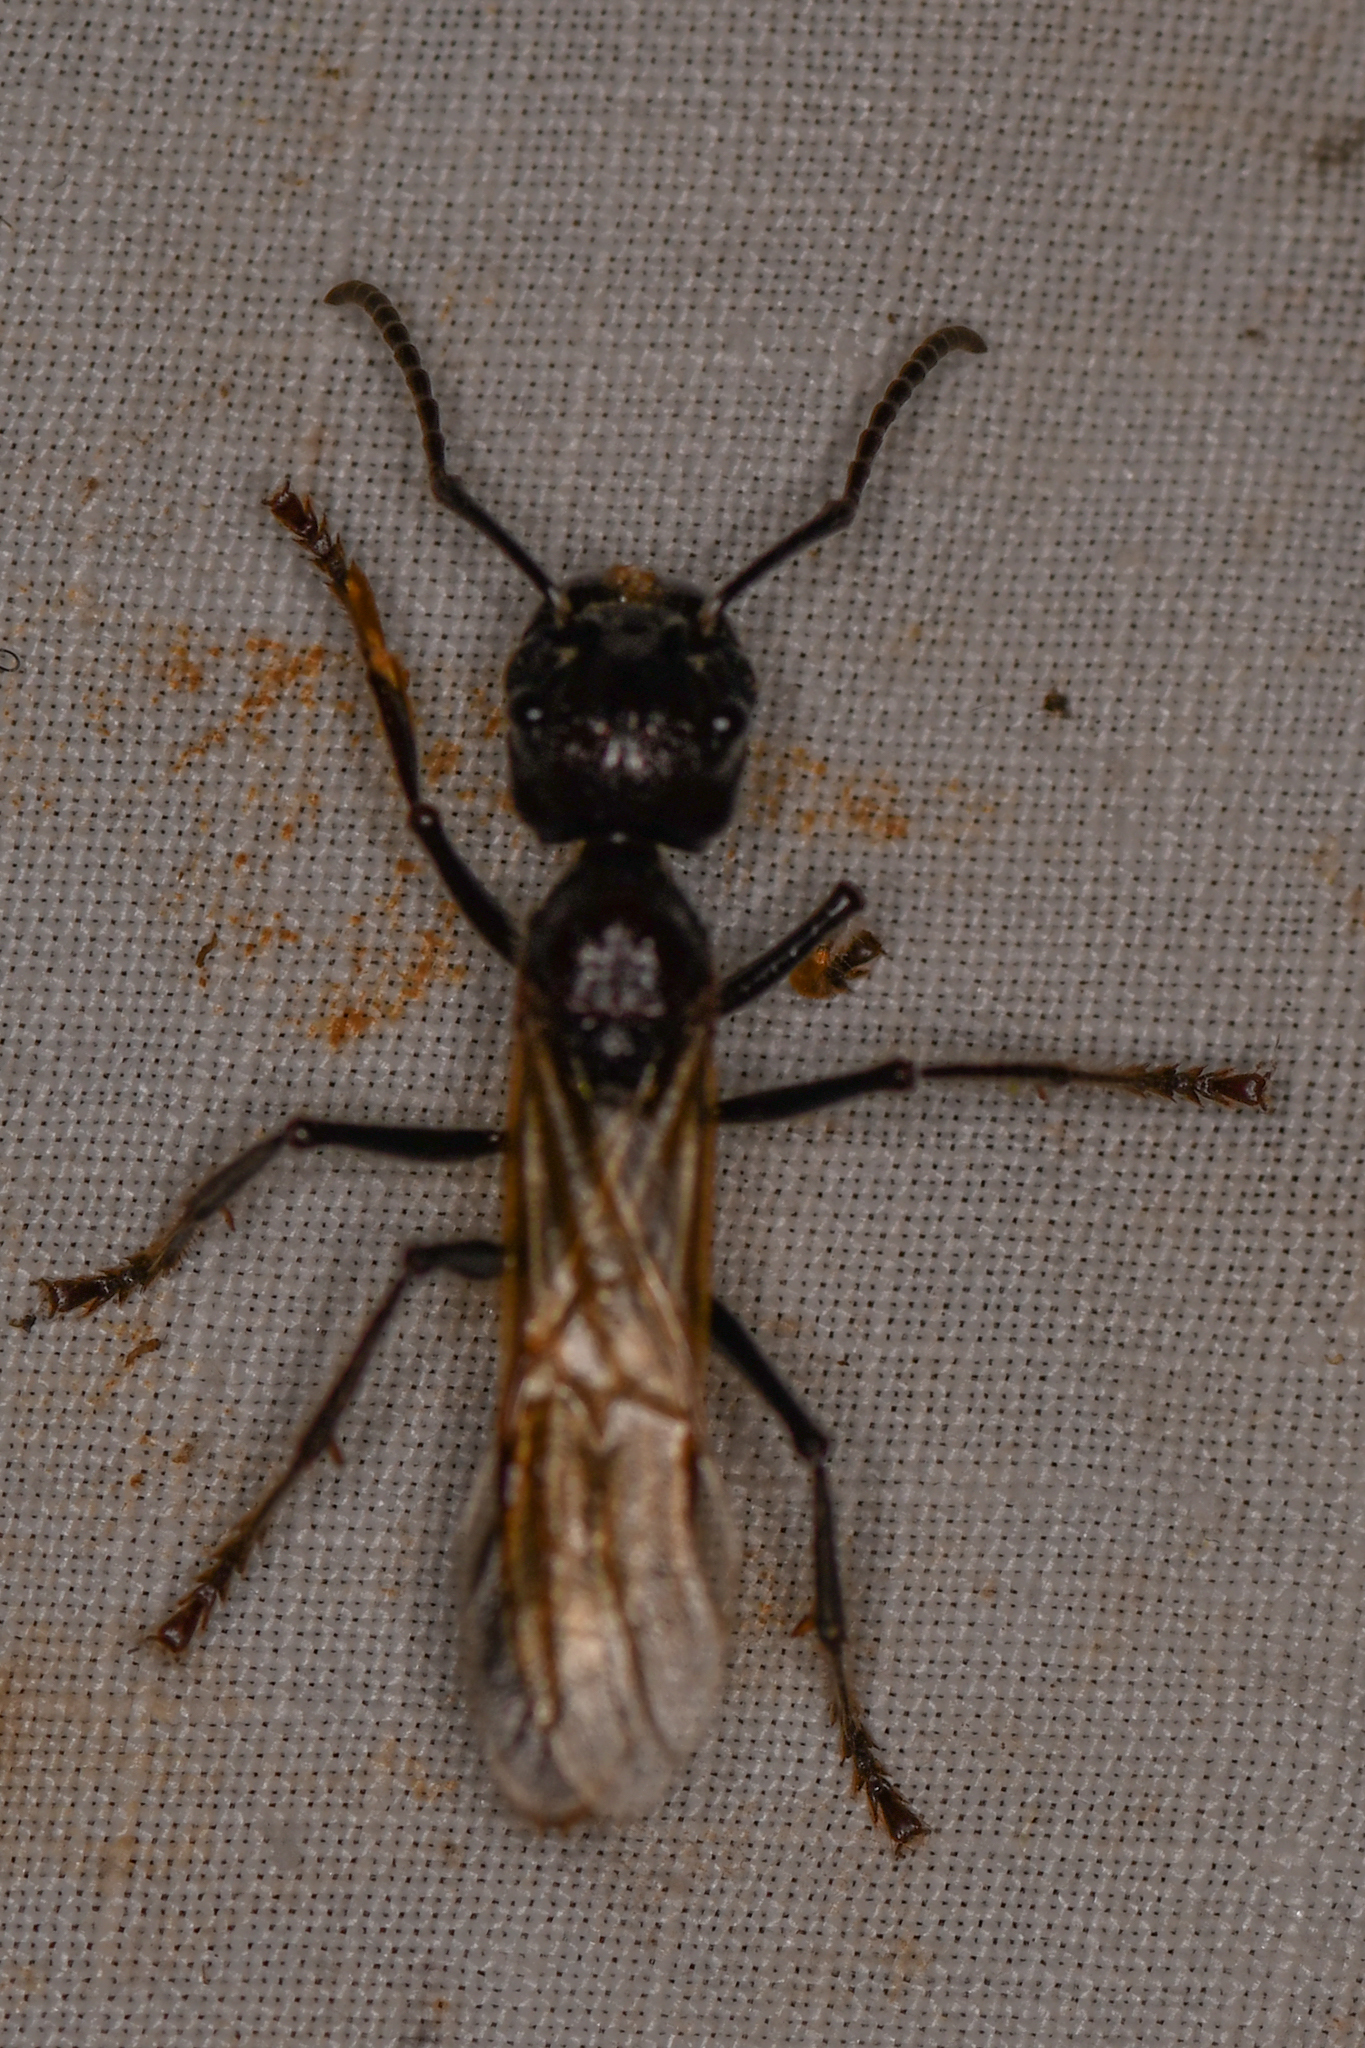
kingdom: Animalia
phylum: Arthropoda
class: Insecta
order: Hymenoptera
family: Formicidae
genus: Paraponera
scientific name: Paraponera clavata
